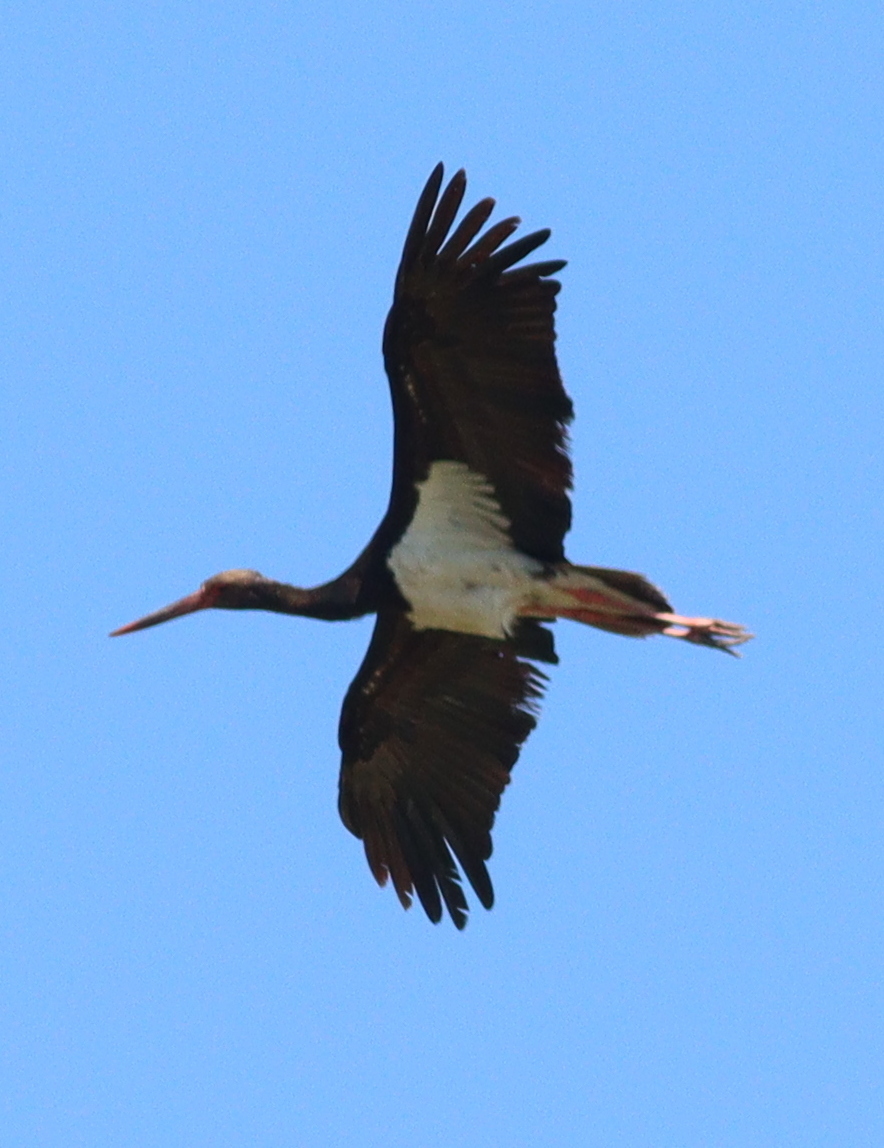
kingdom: Animalia
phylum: Chordata
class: Aves
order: Ciconiiformes
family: Ciconiidae
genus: Ciconia
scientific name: Ciconia nigra
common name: Black stork
